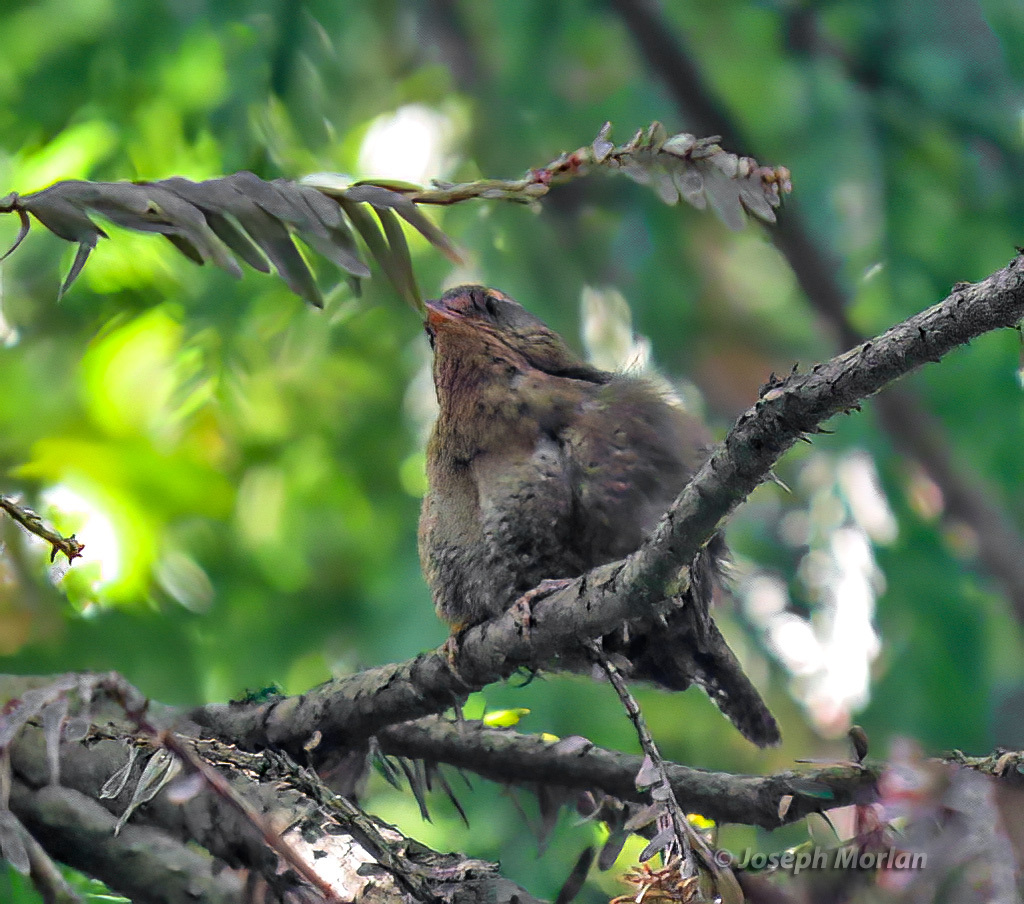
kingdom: Animalia
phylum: Chordata
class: Aves
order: Passeriformes
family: Troglodytidae
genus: Troglodytes
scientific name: Troglodytes pacificus
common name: Pacific wren
